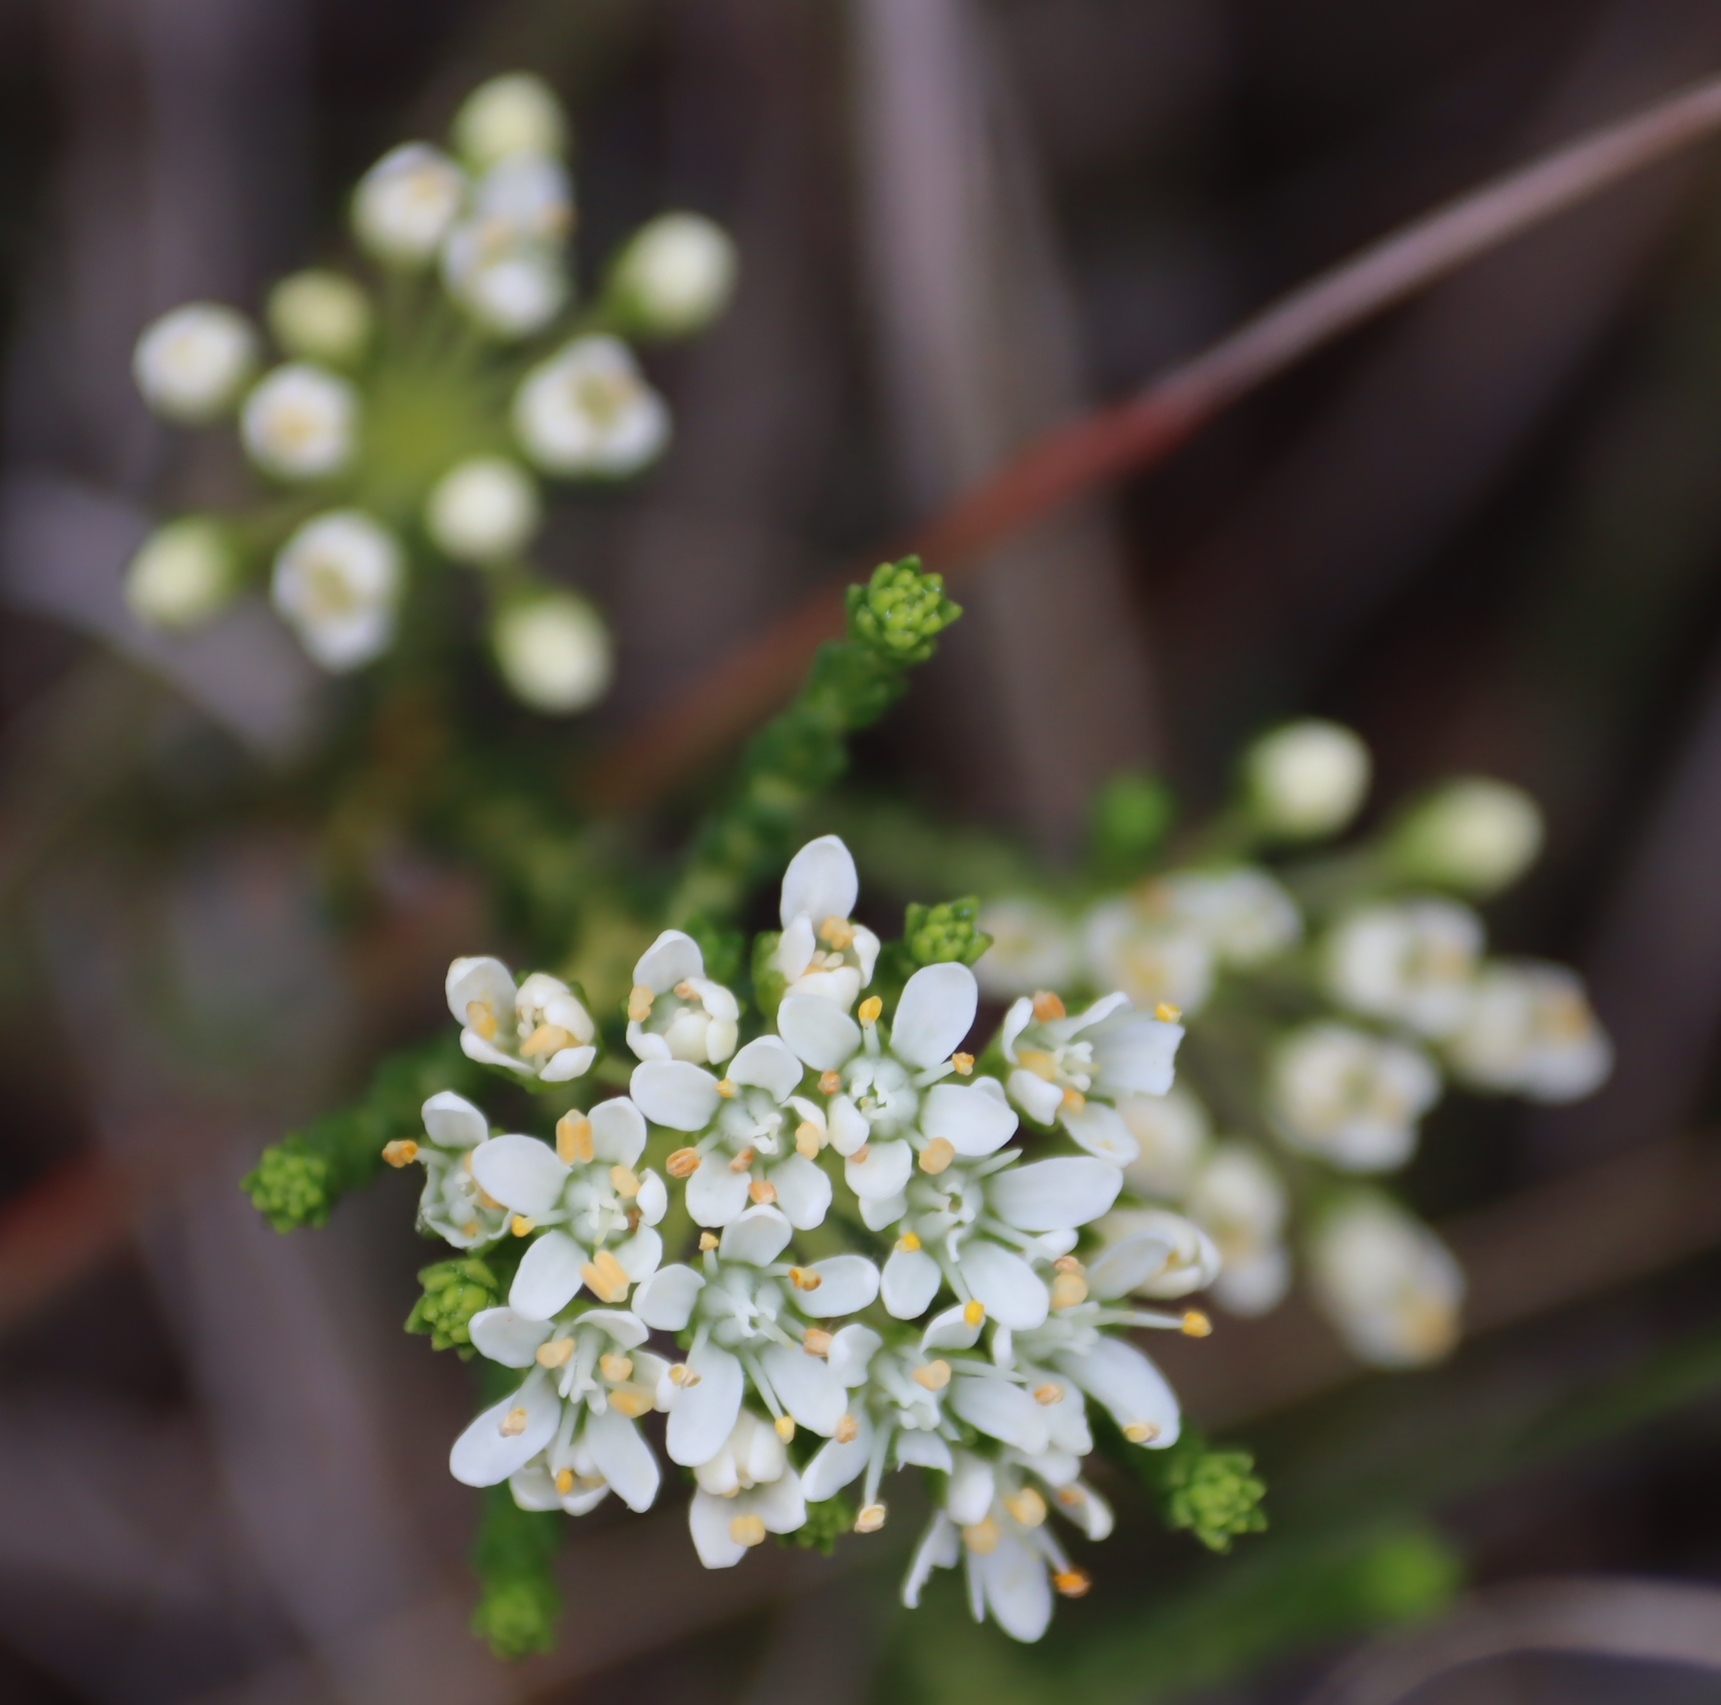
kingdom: Plantae
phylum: Tracheophyta
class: Magnoliopsida
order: Sapindales
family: Rutaceae
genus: Agathosma
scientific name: Agathosma imbricata
